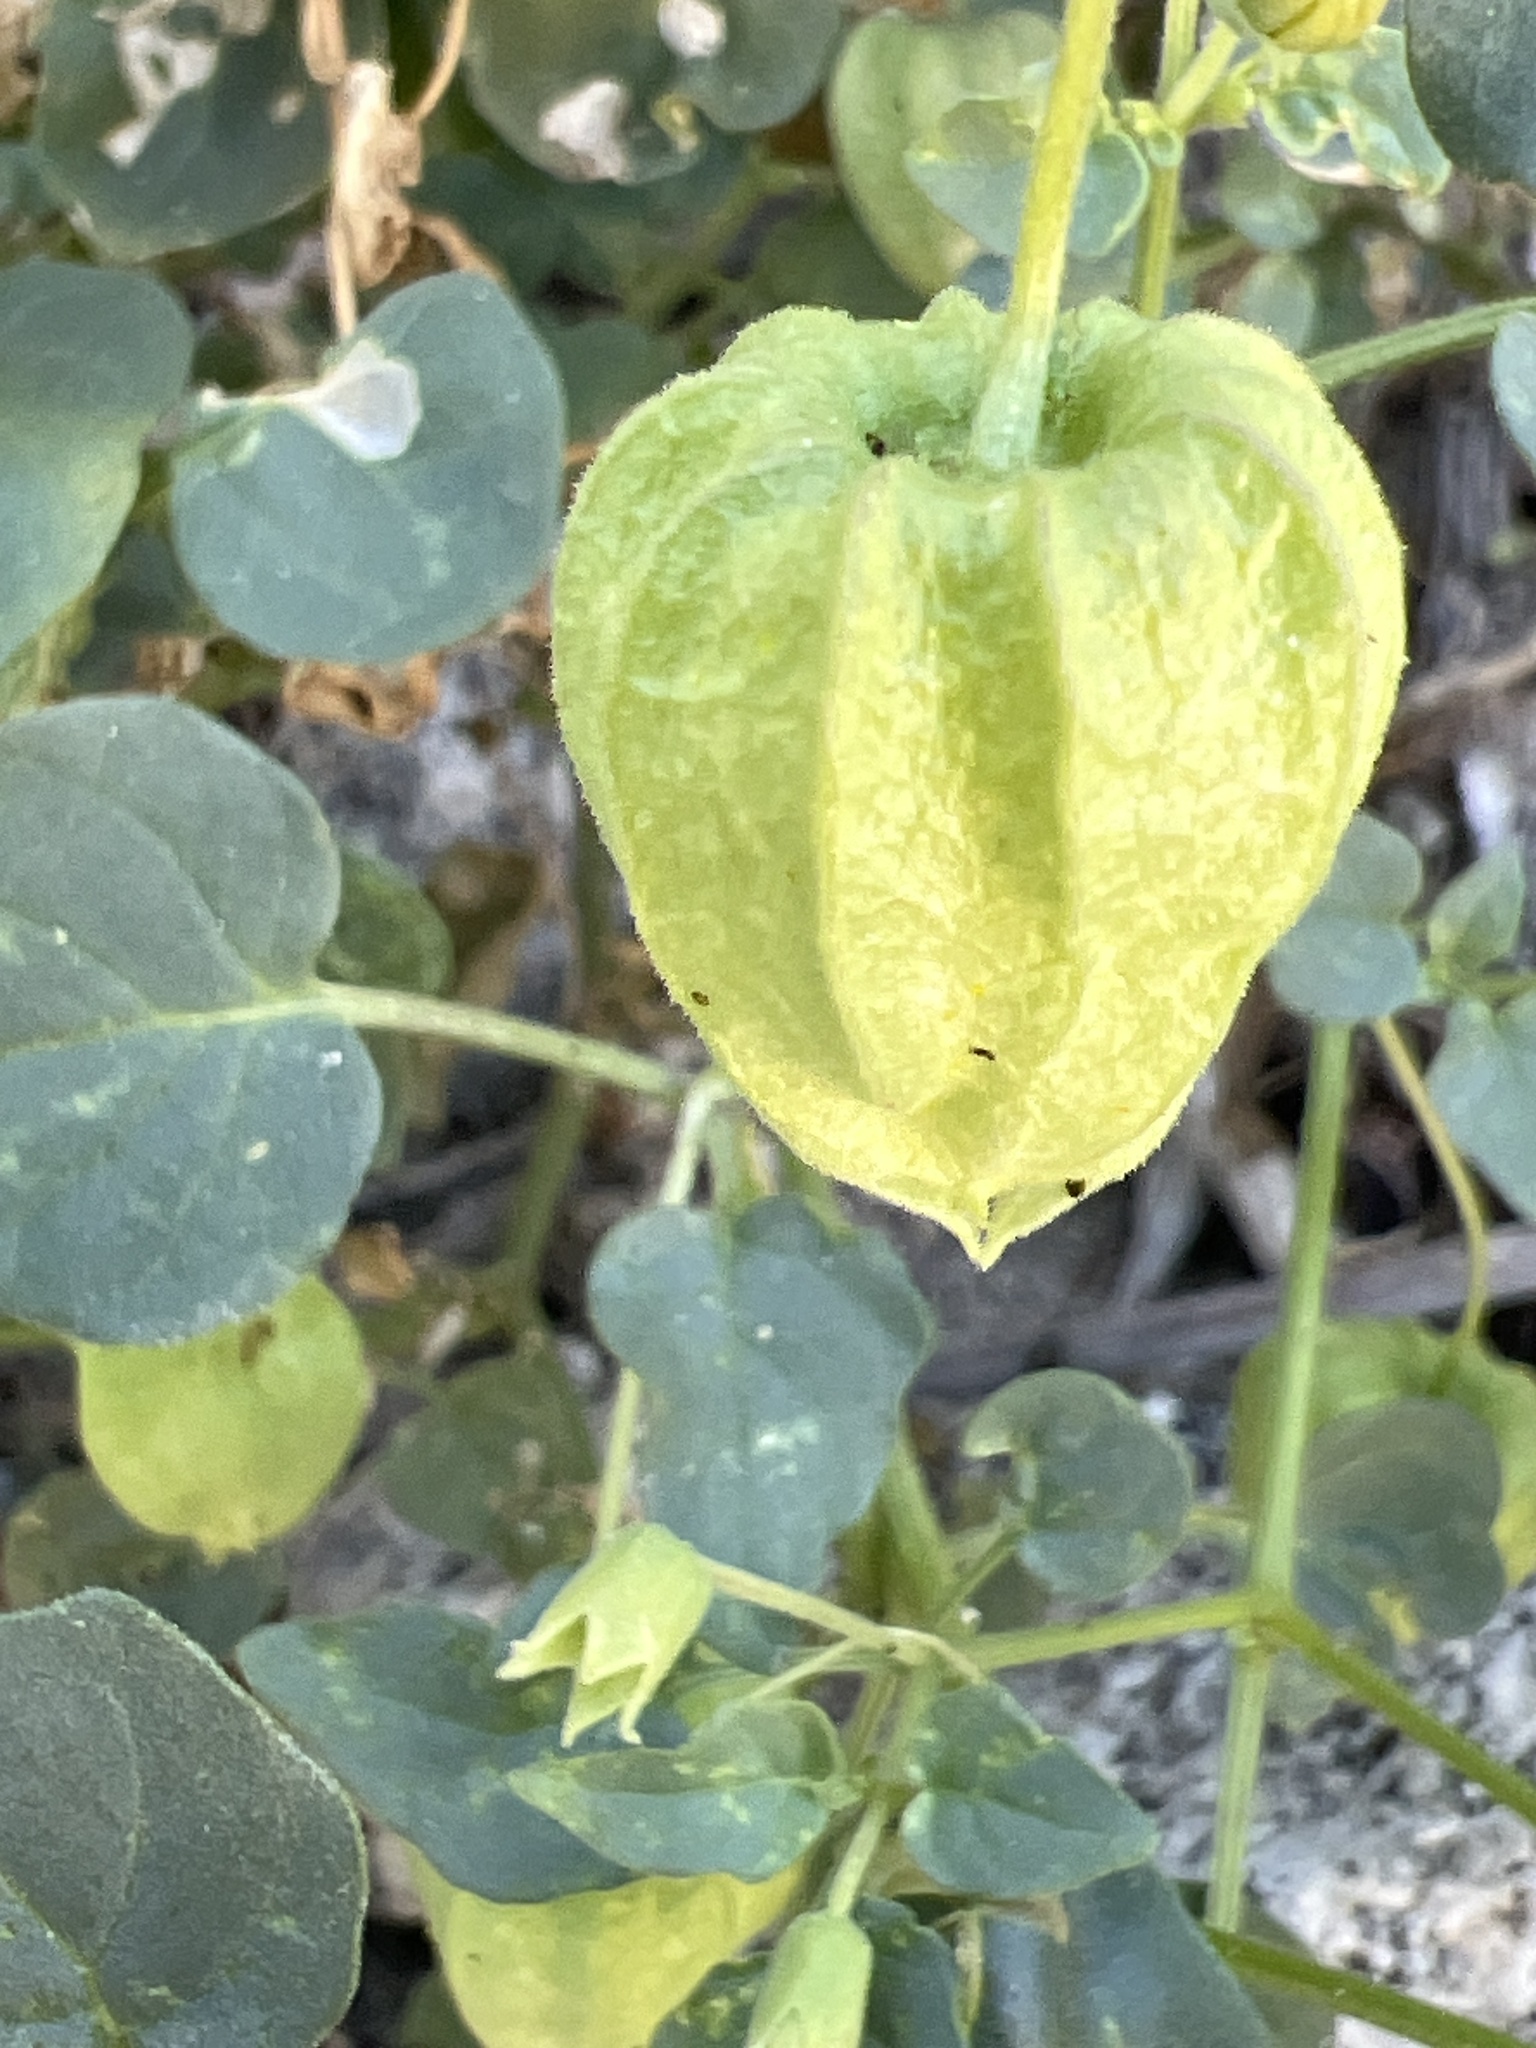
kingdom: Plantae
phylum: Tracheophyta
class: Magnoliopsida
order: Solanales
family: Solanaceae
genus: Physalis
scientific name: Physalis crassifolia
